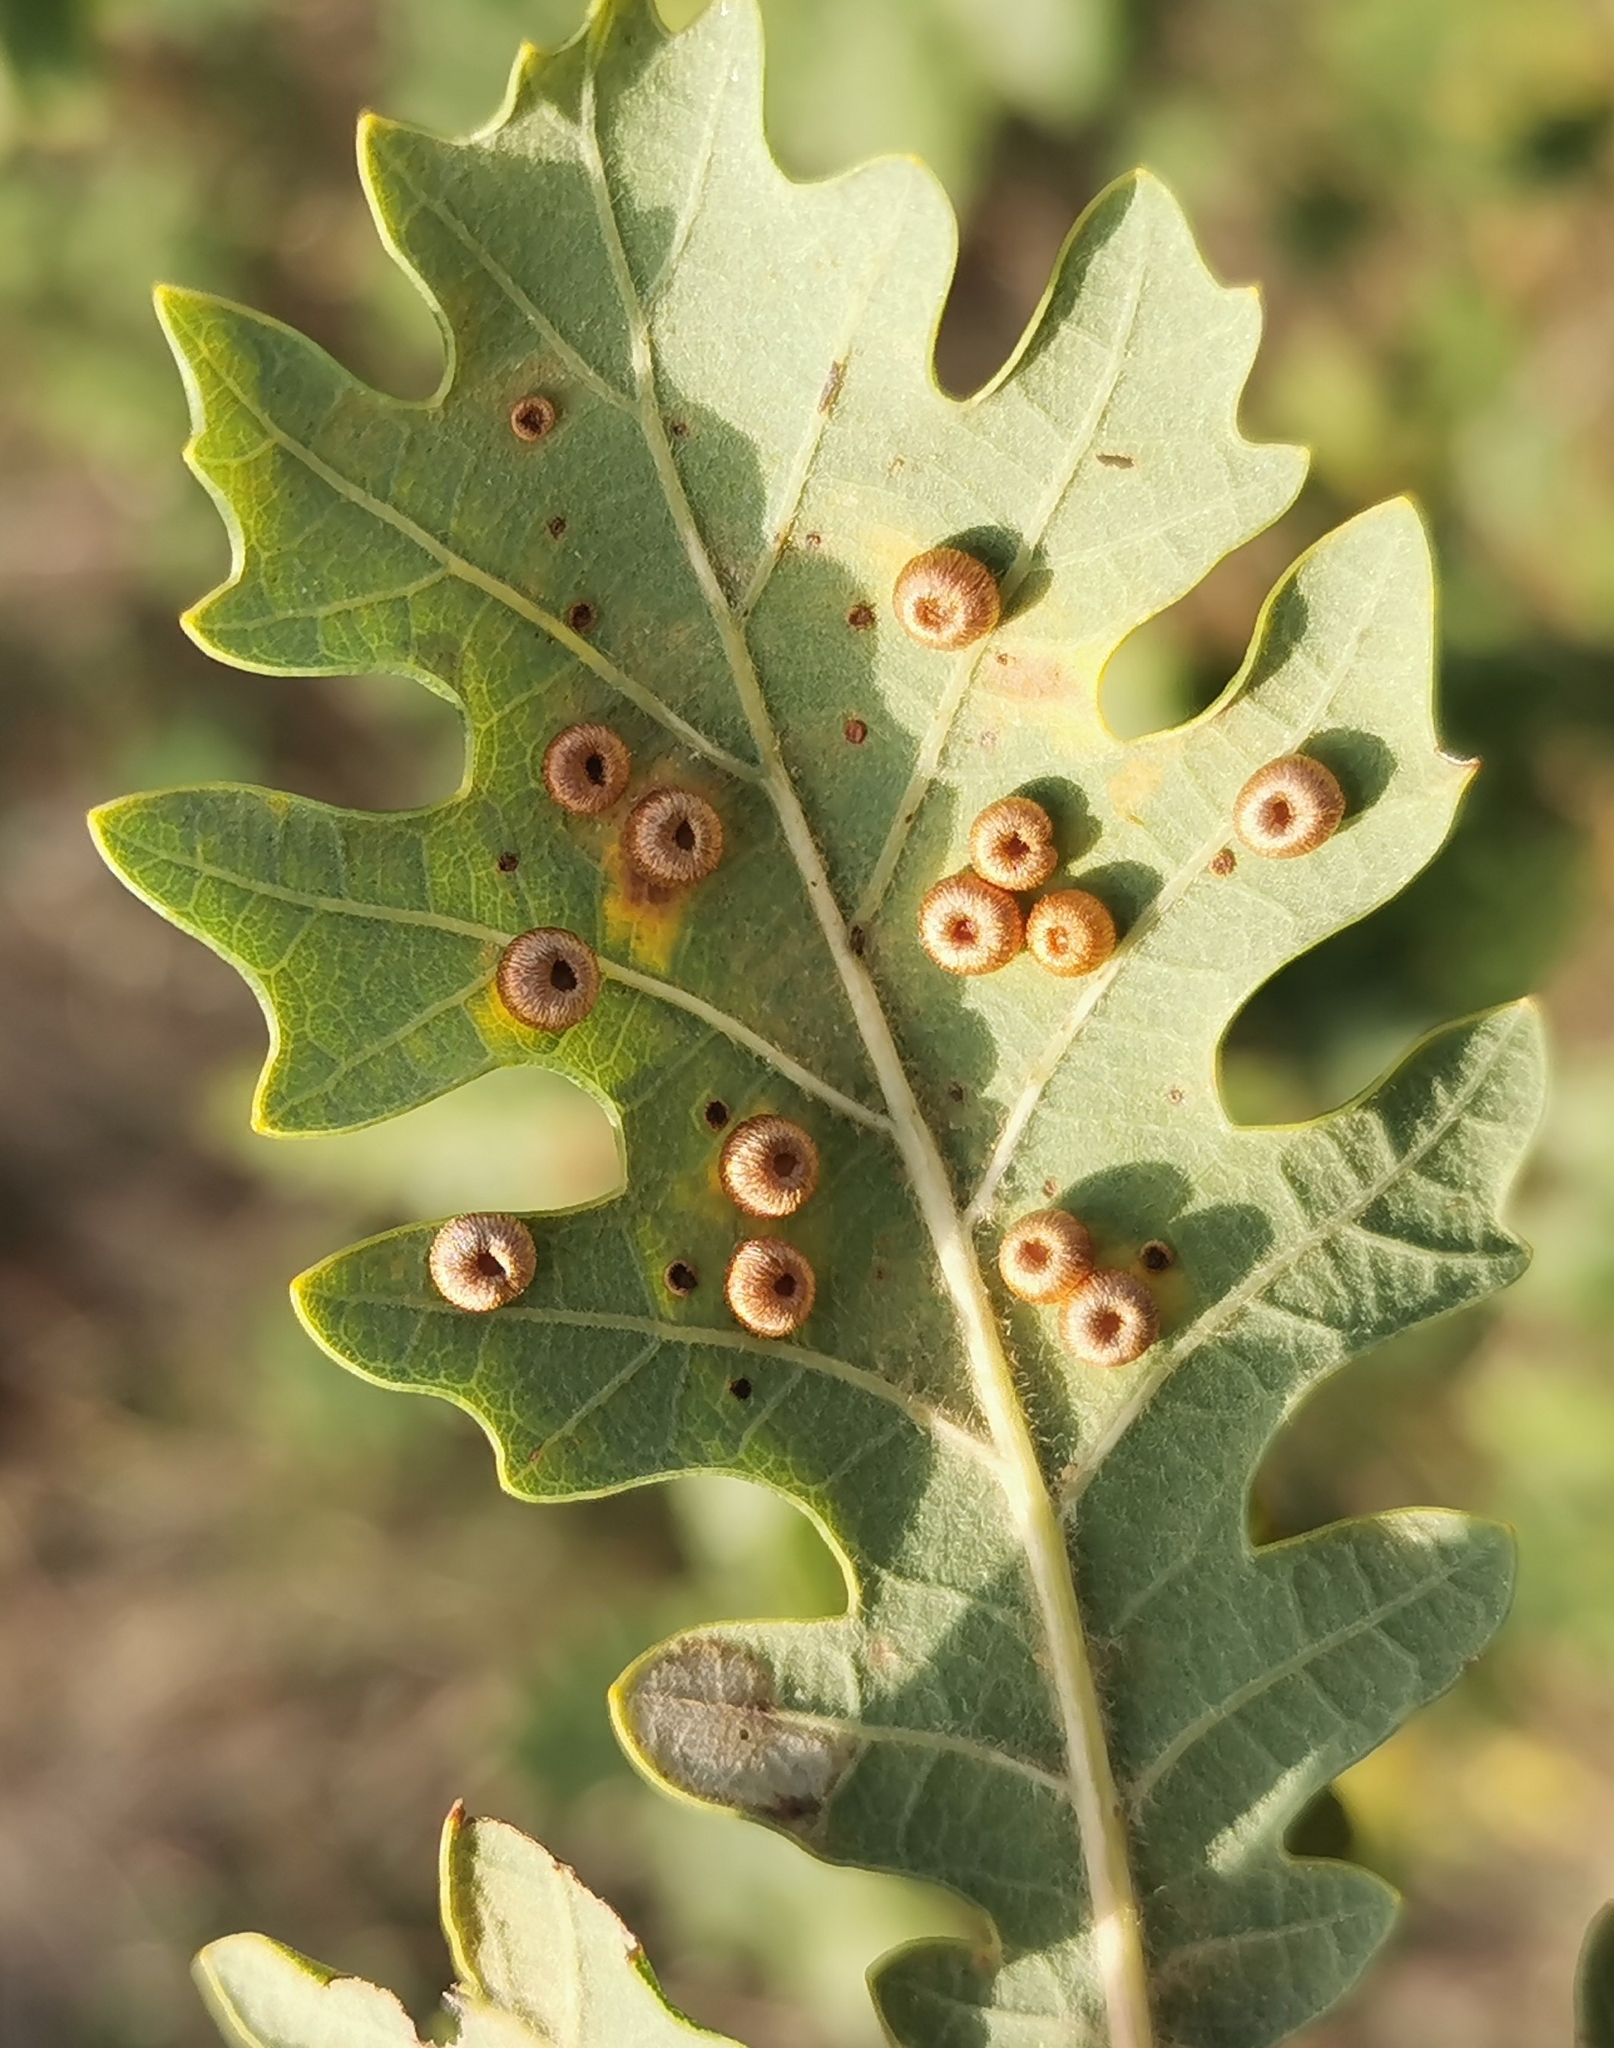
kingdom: Animalia
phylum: Arthropoda
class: Insecta
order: Hymenoptera
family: Cynipidae
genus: Neuroterus
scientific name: Neuroterus numismalis
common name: Silk-button spangle gall
